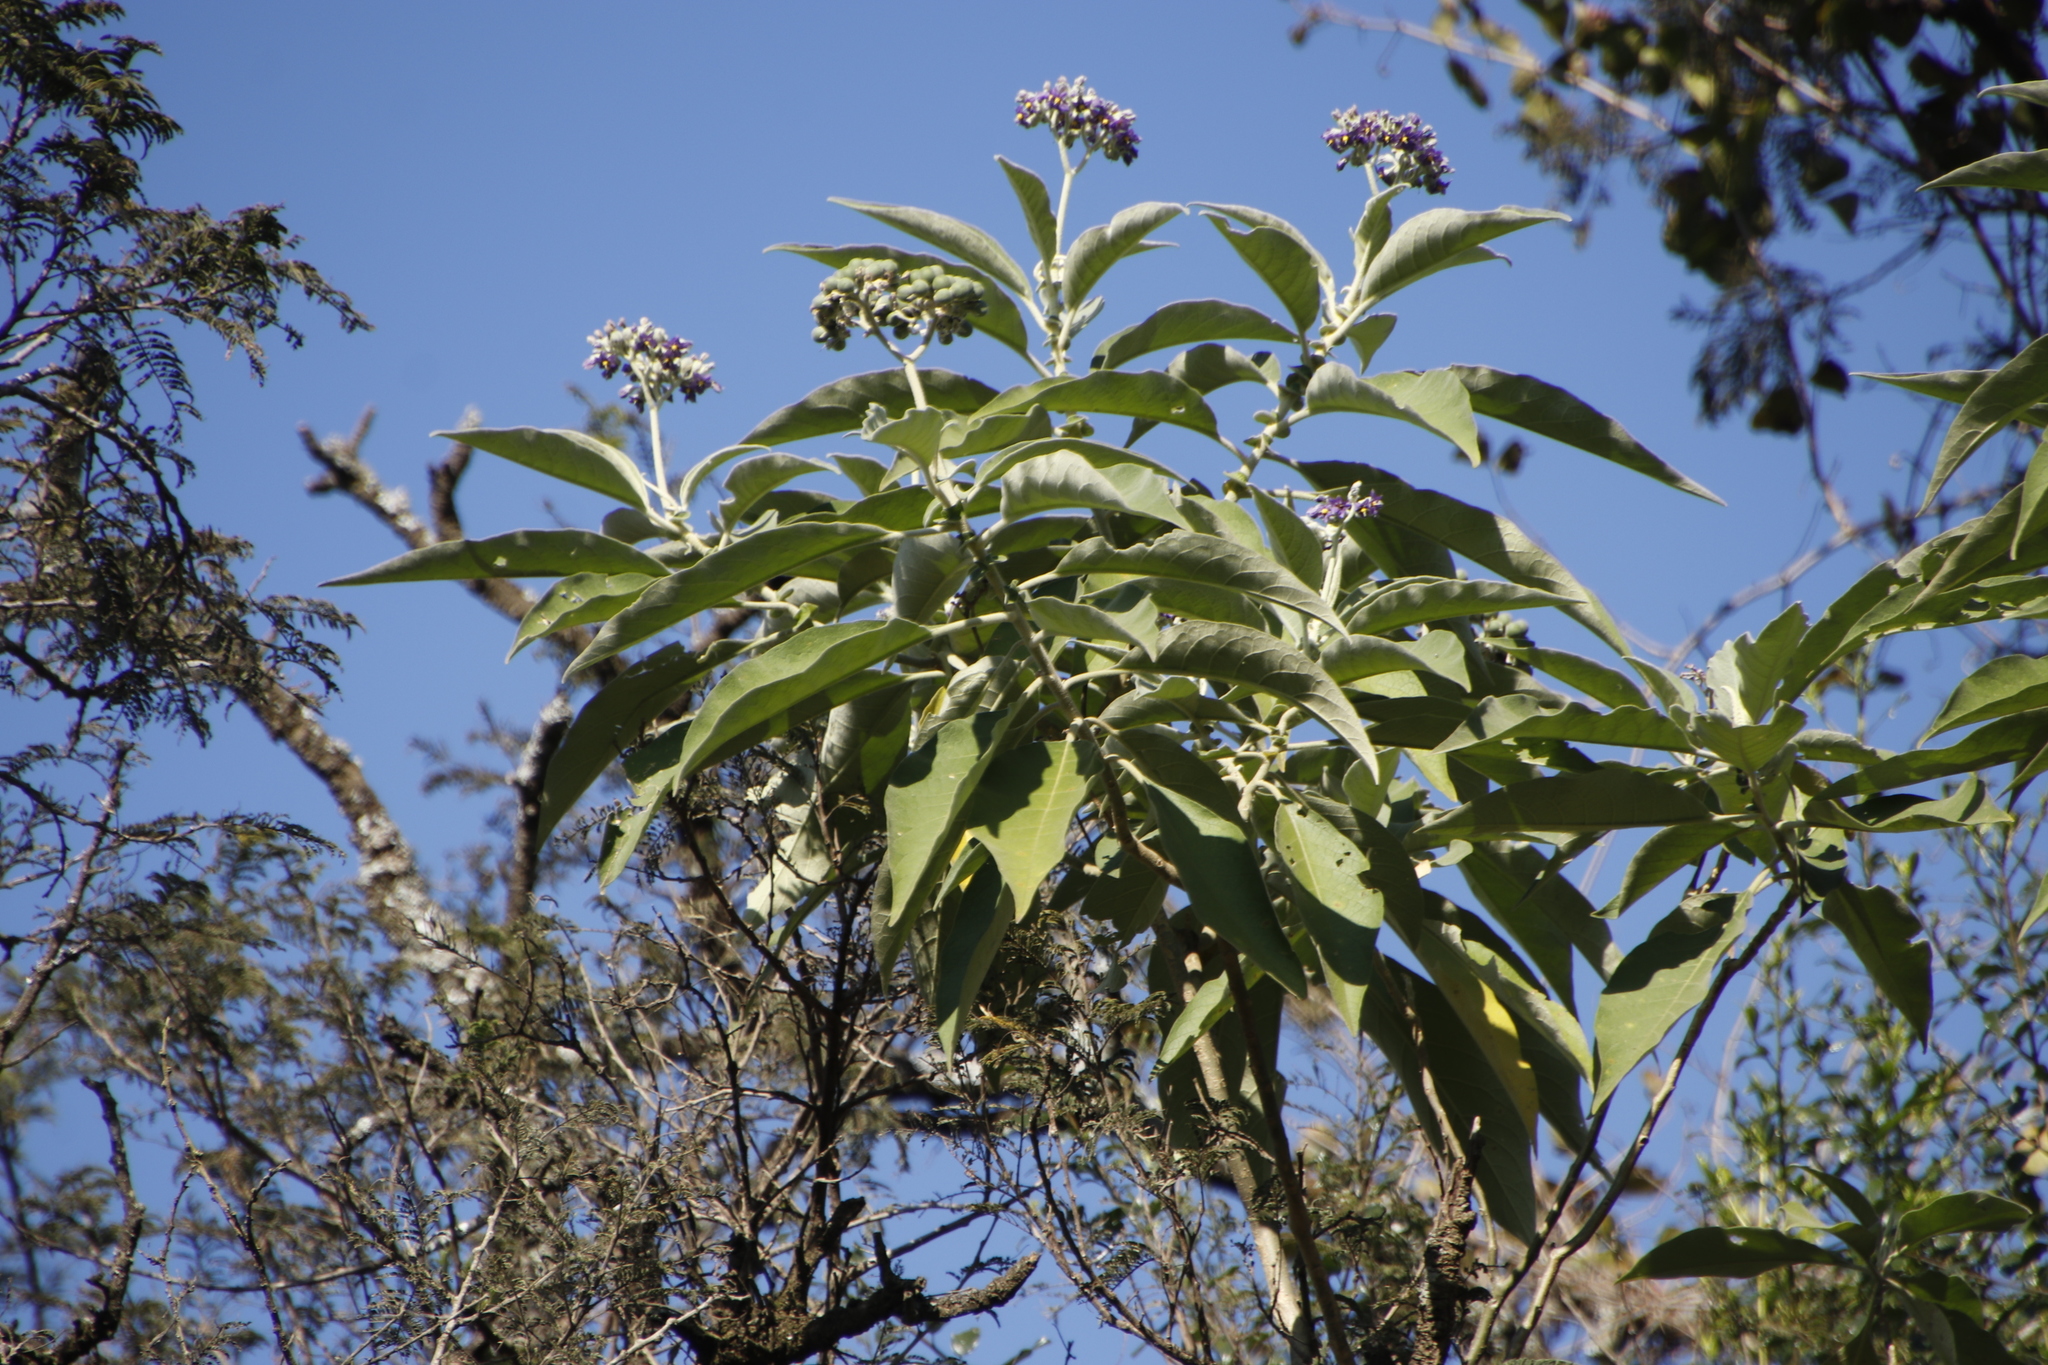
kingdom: Plantae
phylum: Tracheophyta
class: Magnoliopsida
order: Solanales
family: Solanaceae
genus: Solanum
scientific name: Solanum mauritianum
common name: Earleaf nightshade
